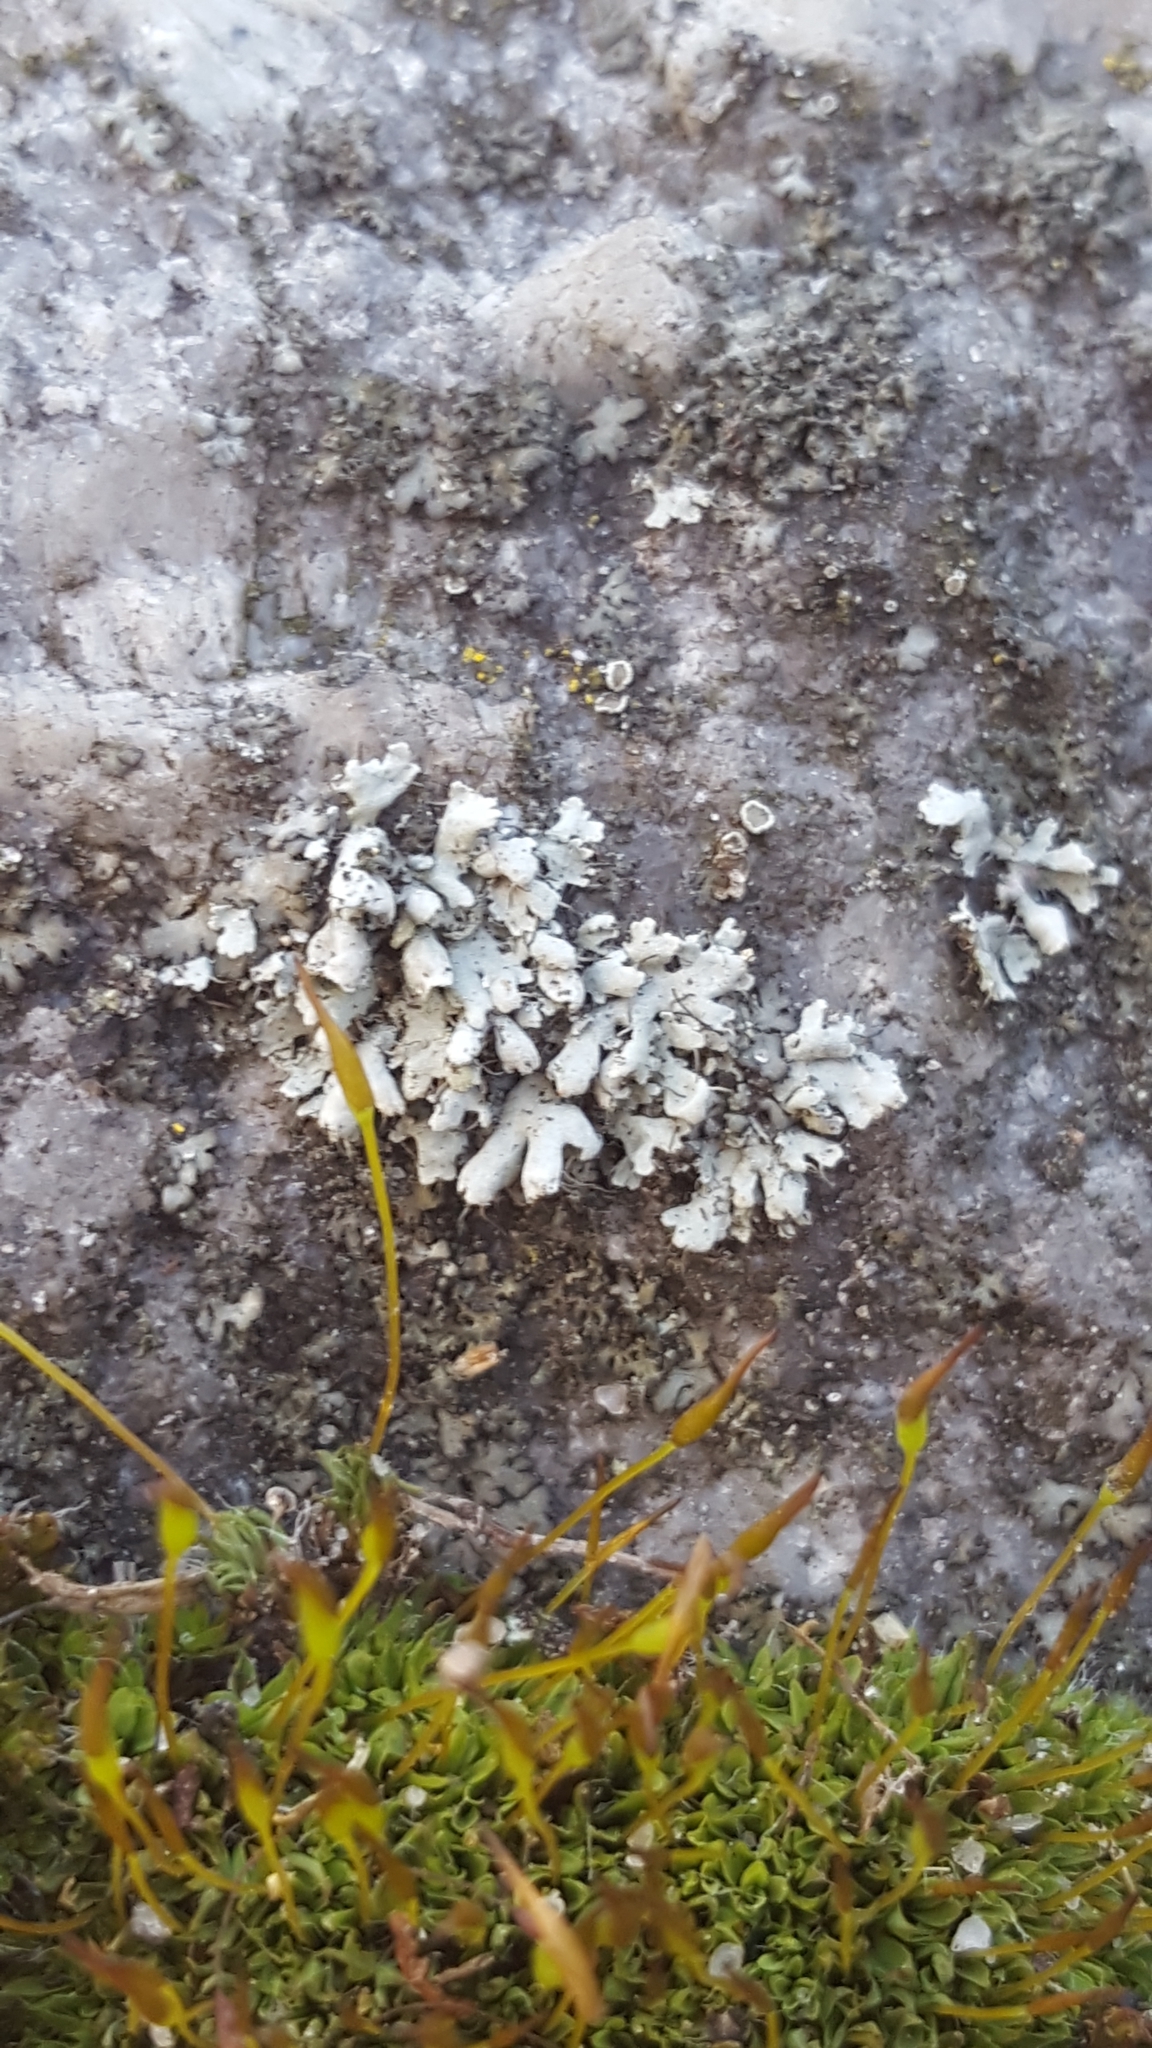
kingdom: Fungi
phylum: Ascomycota
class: Lecanoromycetes
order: Caliciales
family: Physciaceae
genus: Physcia
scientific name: Physcia adscendens
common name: Hooded rosette lichen
